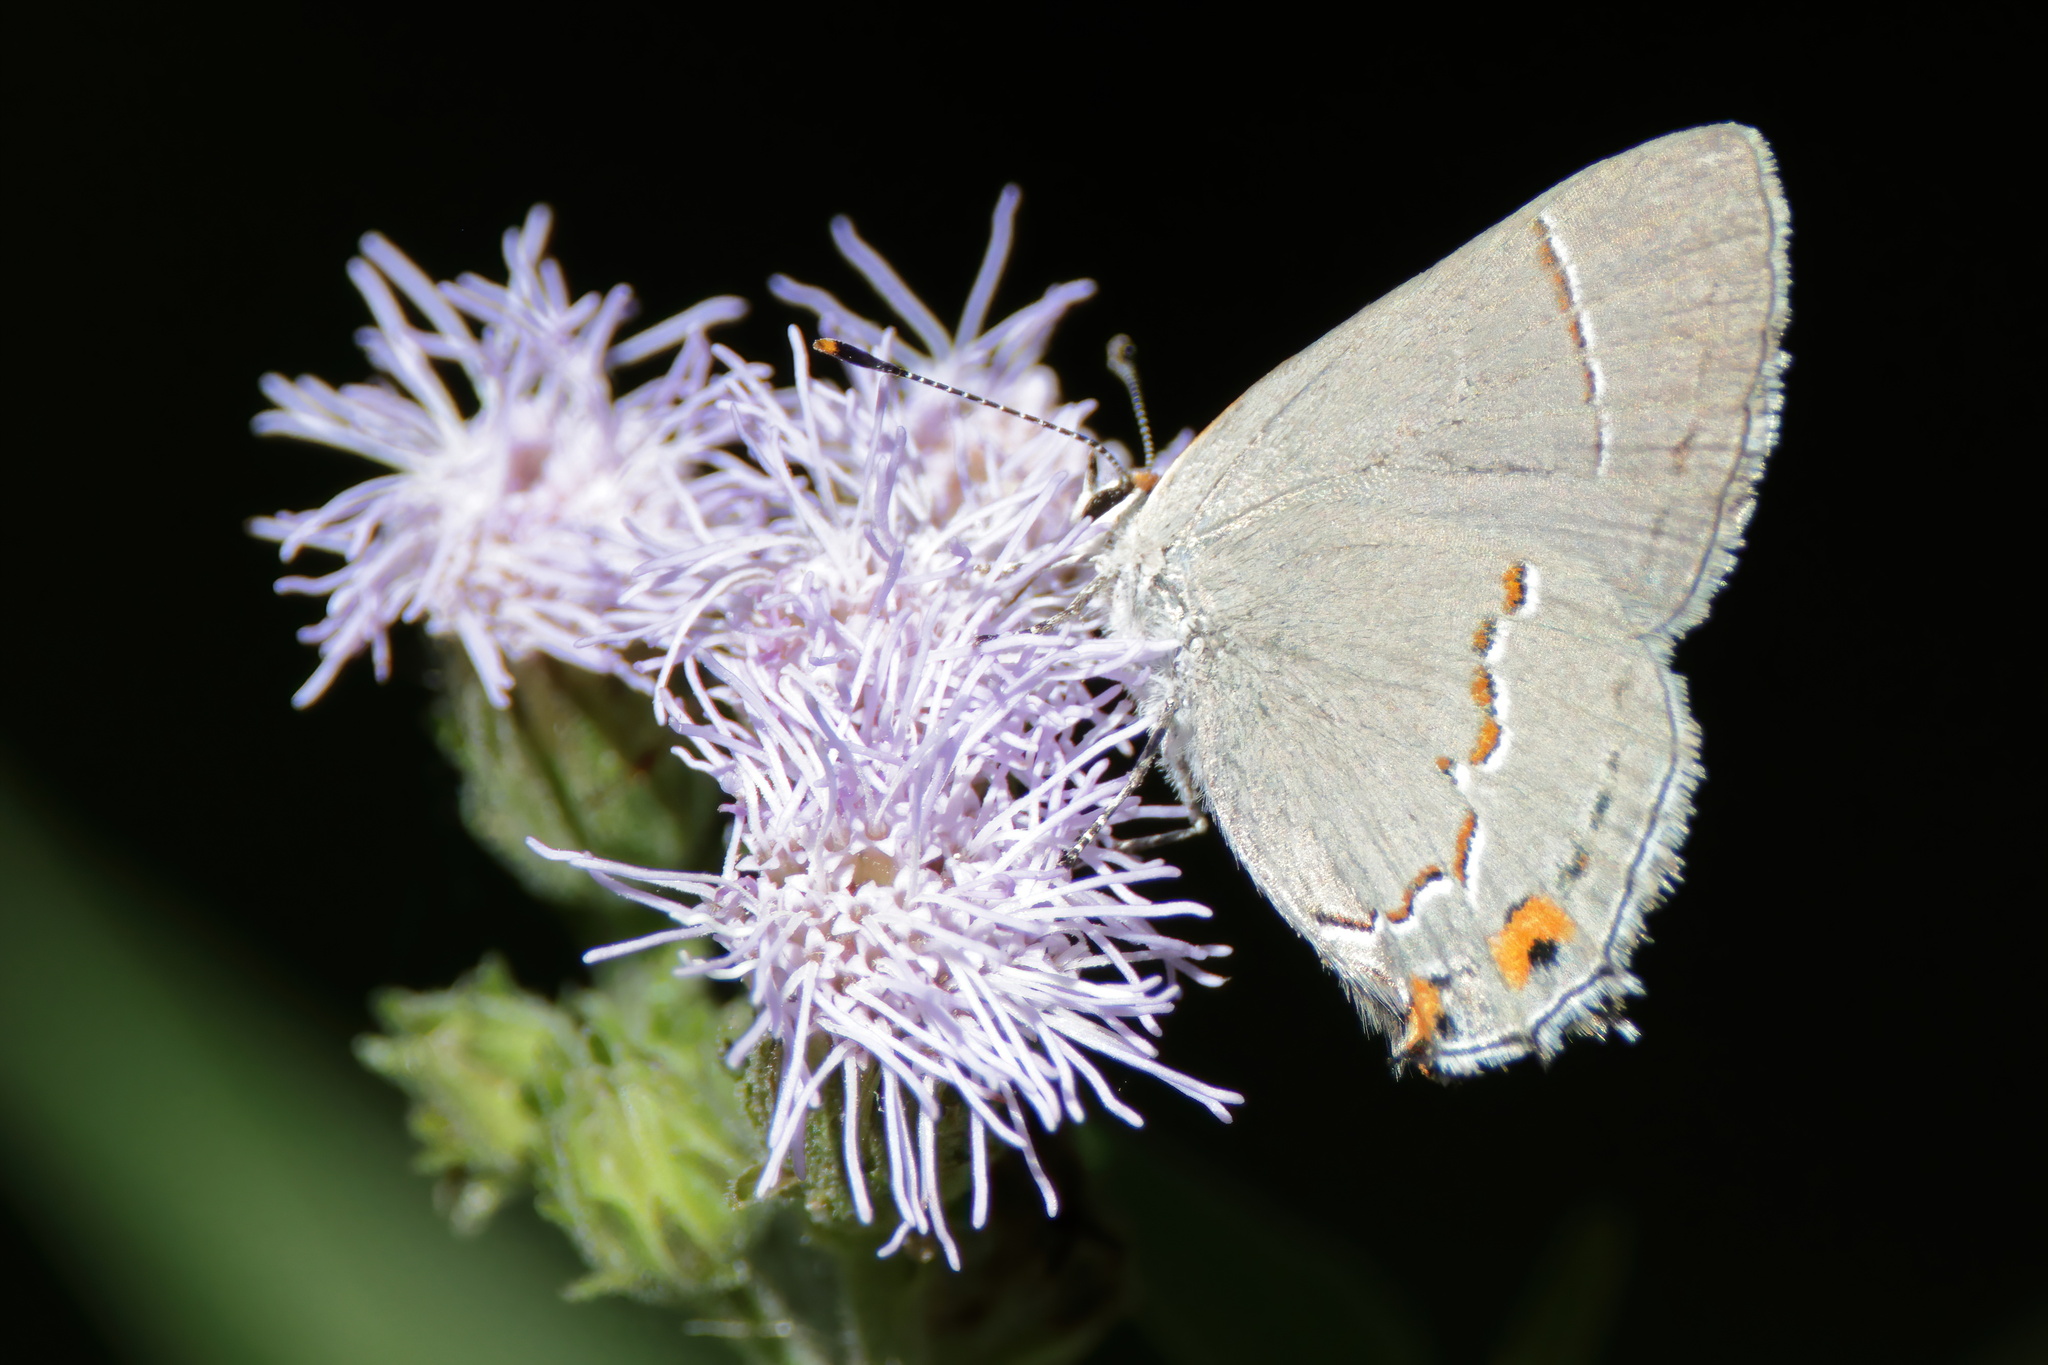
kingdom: Animalia
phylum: Arthropoda
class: Insecta
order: Lepidoptera
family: Lycaenidae
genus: Strymon
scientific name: Strymon melinus
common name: Gray hairstreak
